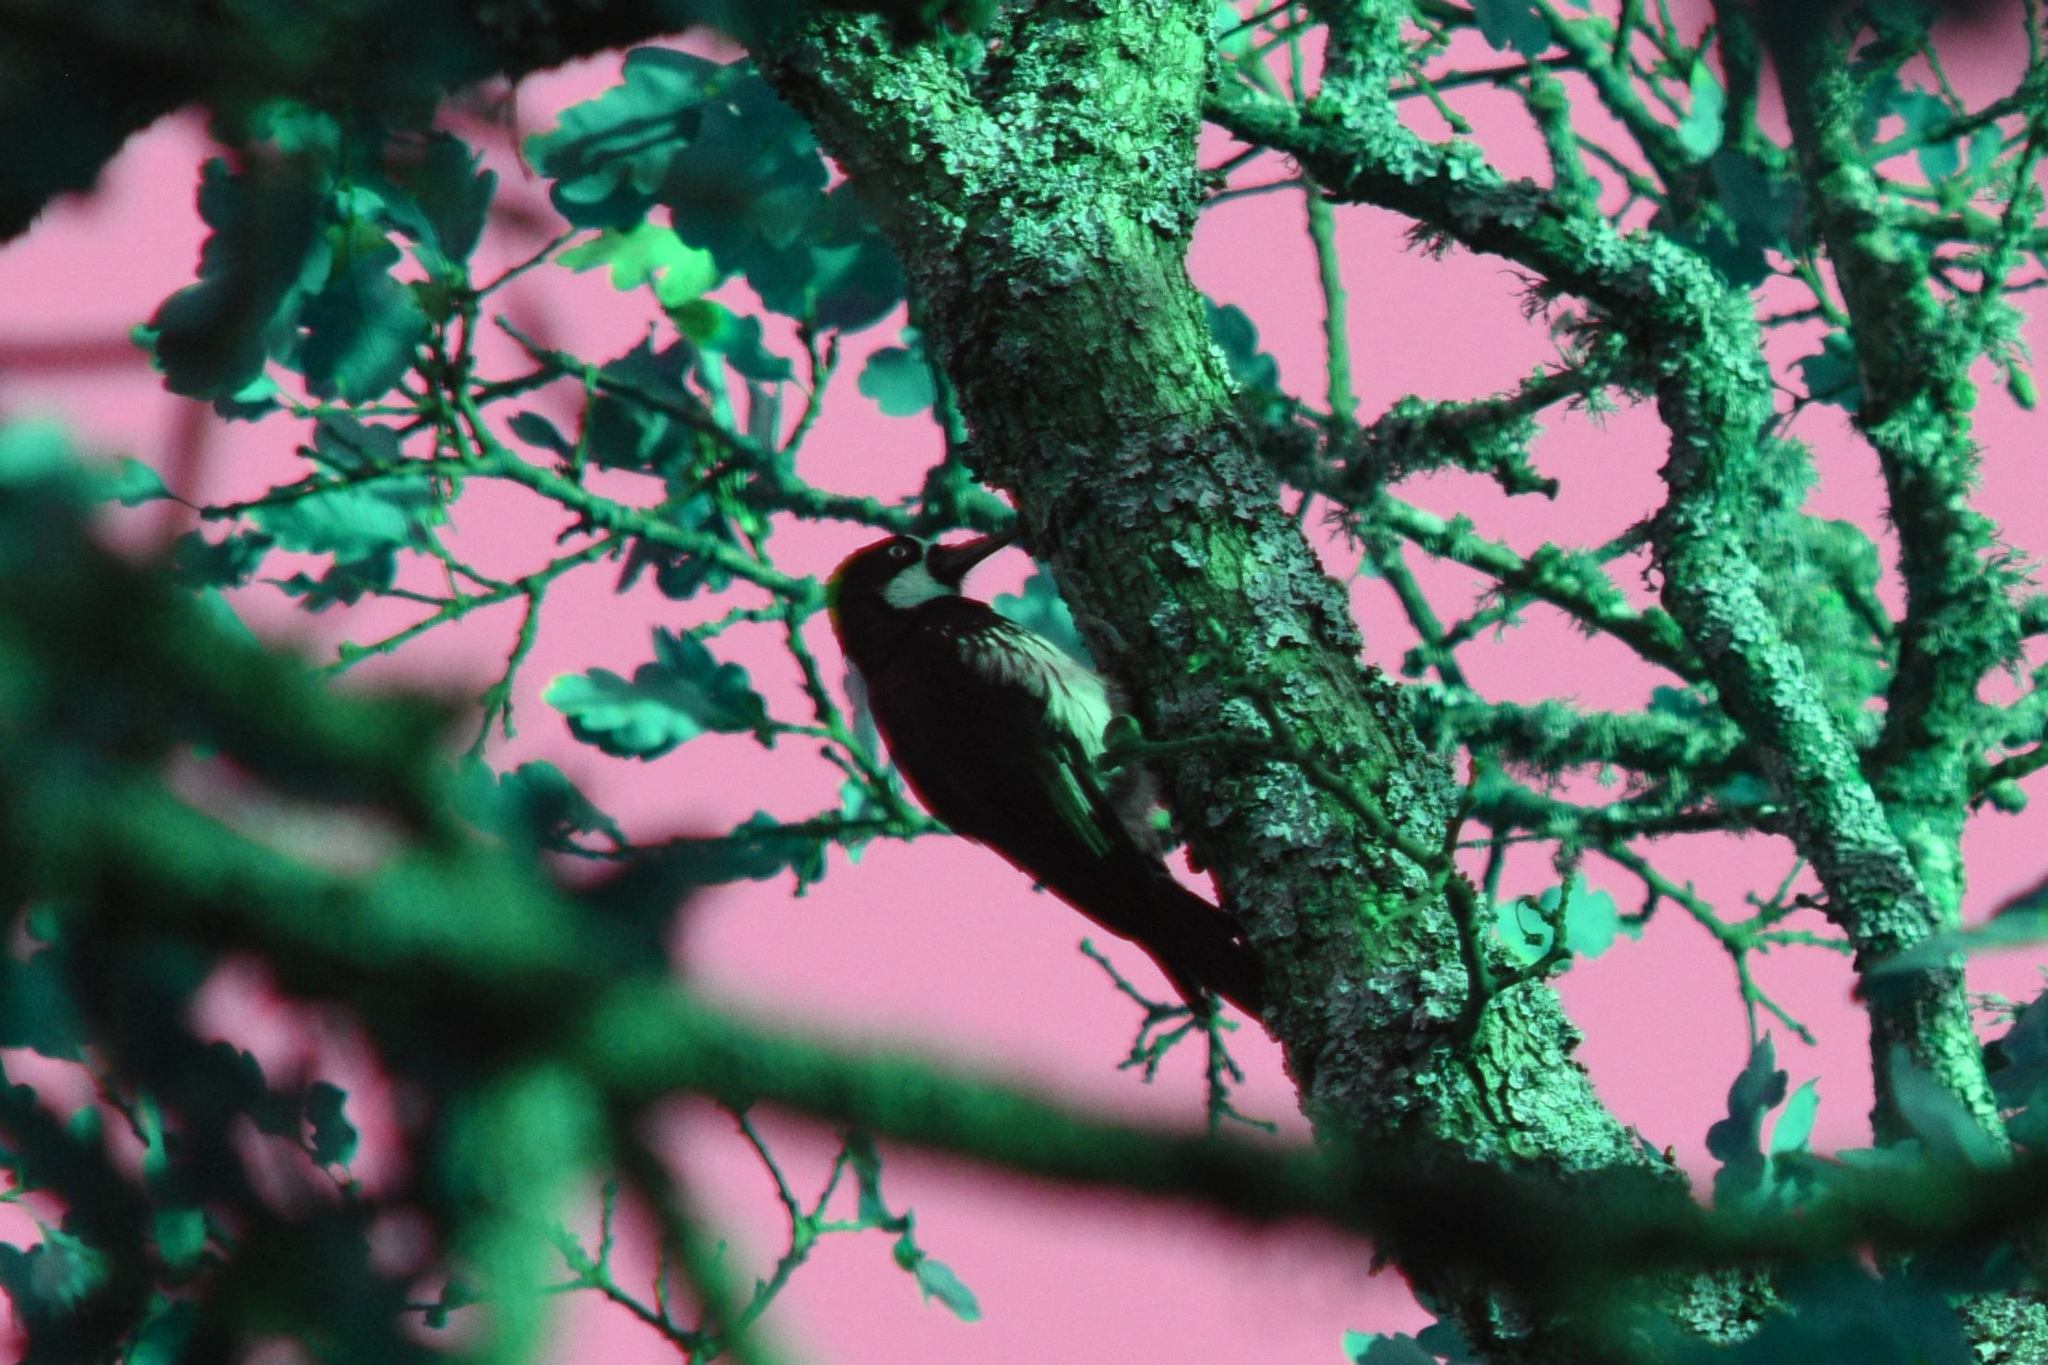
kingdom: Animalia
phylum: Chordata
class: Aves
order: Piciformes
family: Picidae
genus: Melanerpes
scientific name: Melanerpes formicivorus
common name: Acorn woodpecker
